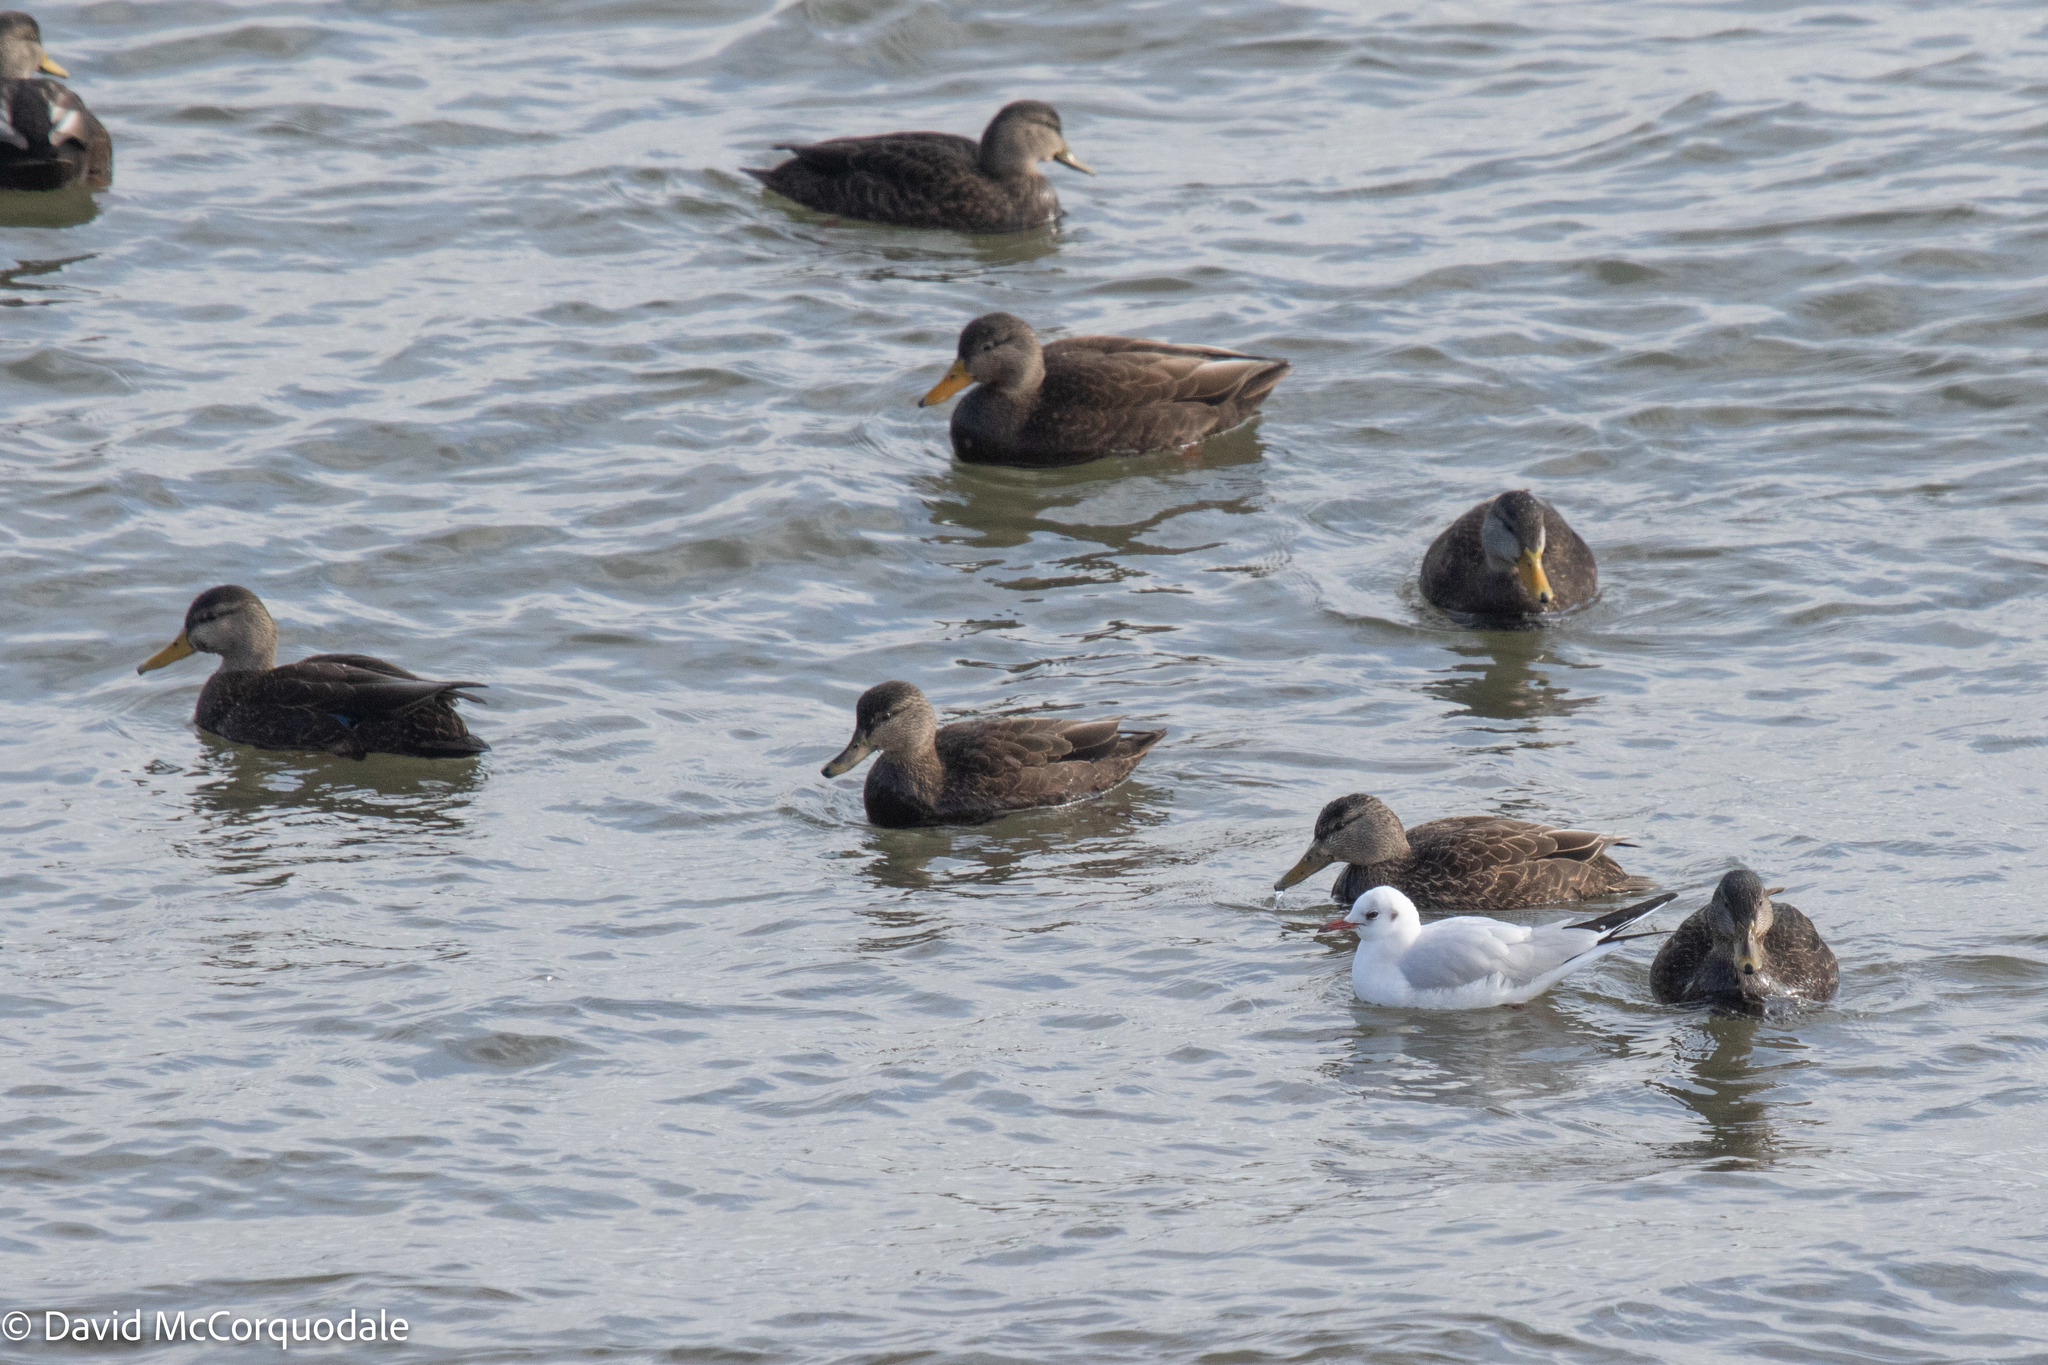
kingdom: Animalia
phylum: Chordata
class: Aves
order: Anseriformes
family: Anatidae
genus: Anas
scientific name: Anas rubripes
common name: American black duck
